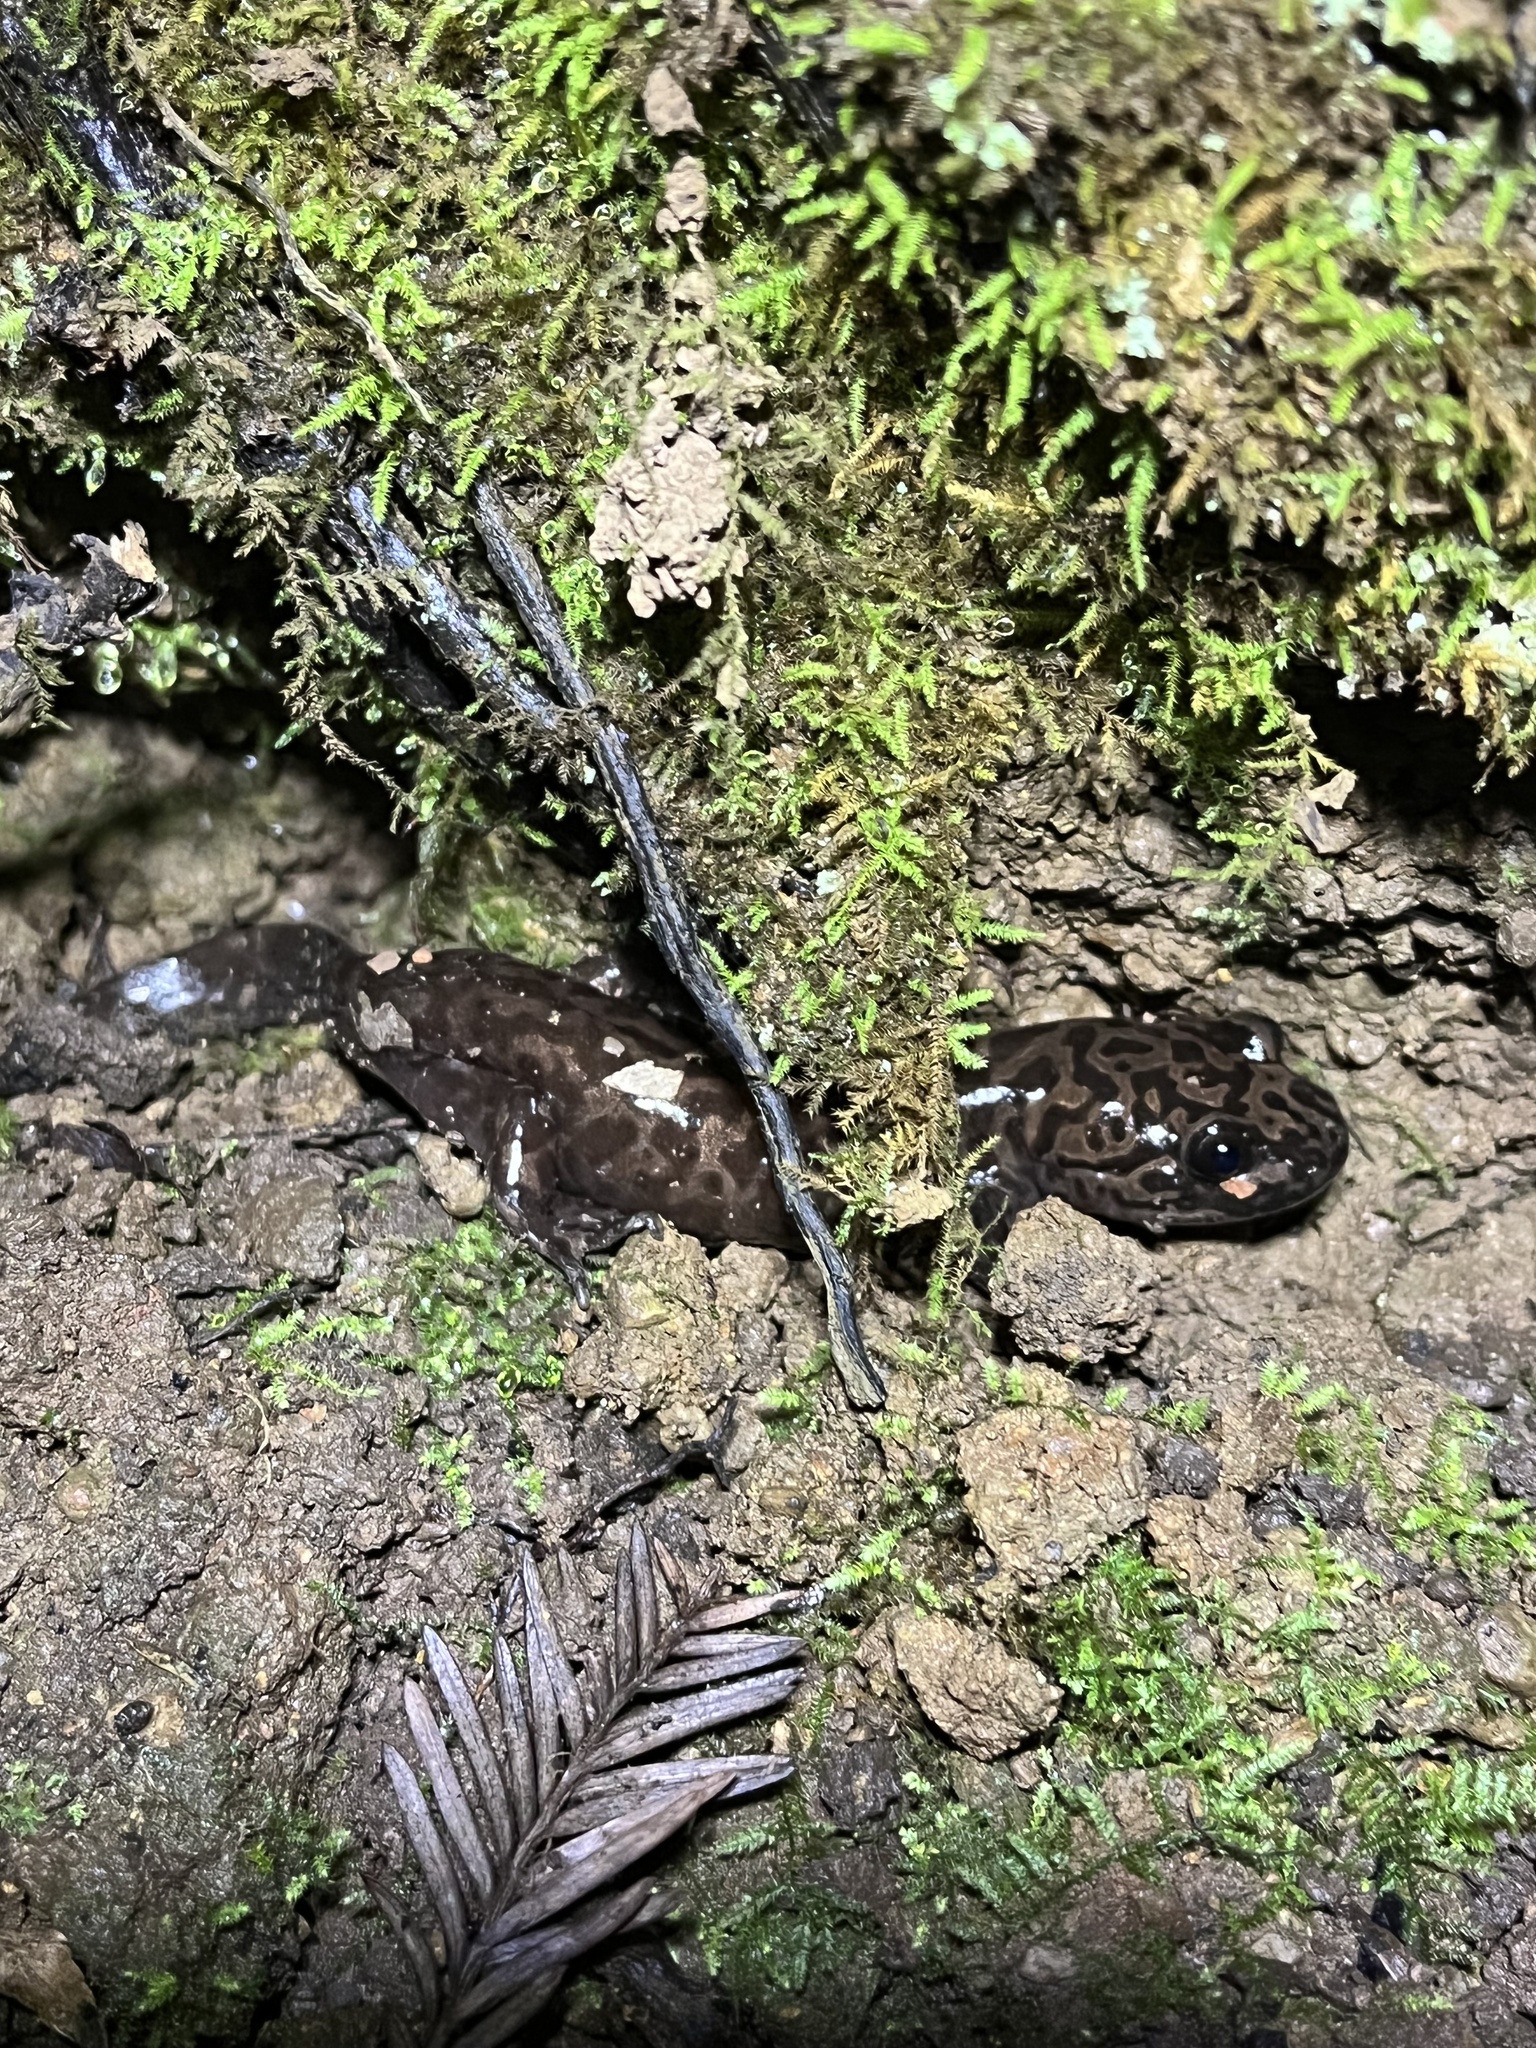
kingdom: Animalia
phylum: Chordata
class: Amphibia
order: Caudata
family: Ambystomatidae
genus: Dicamptodon
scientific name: Dicamptodon ensatus
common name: California giant salamander
